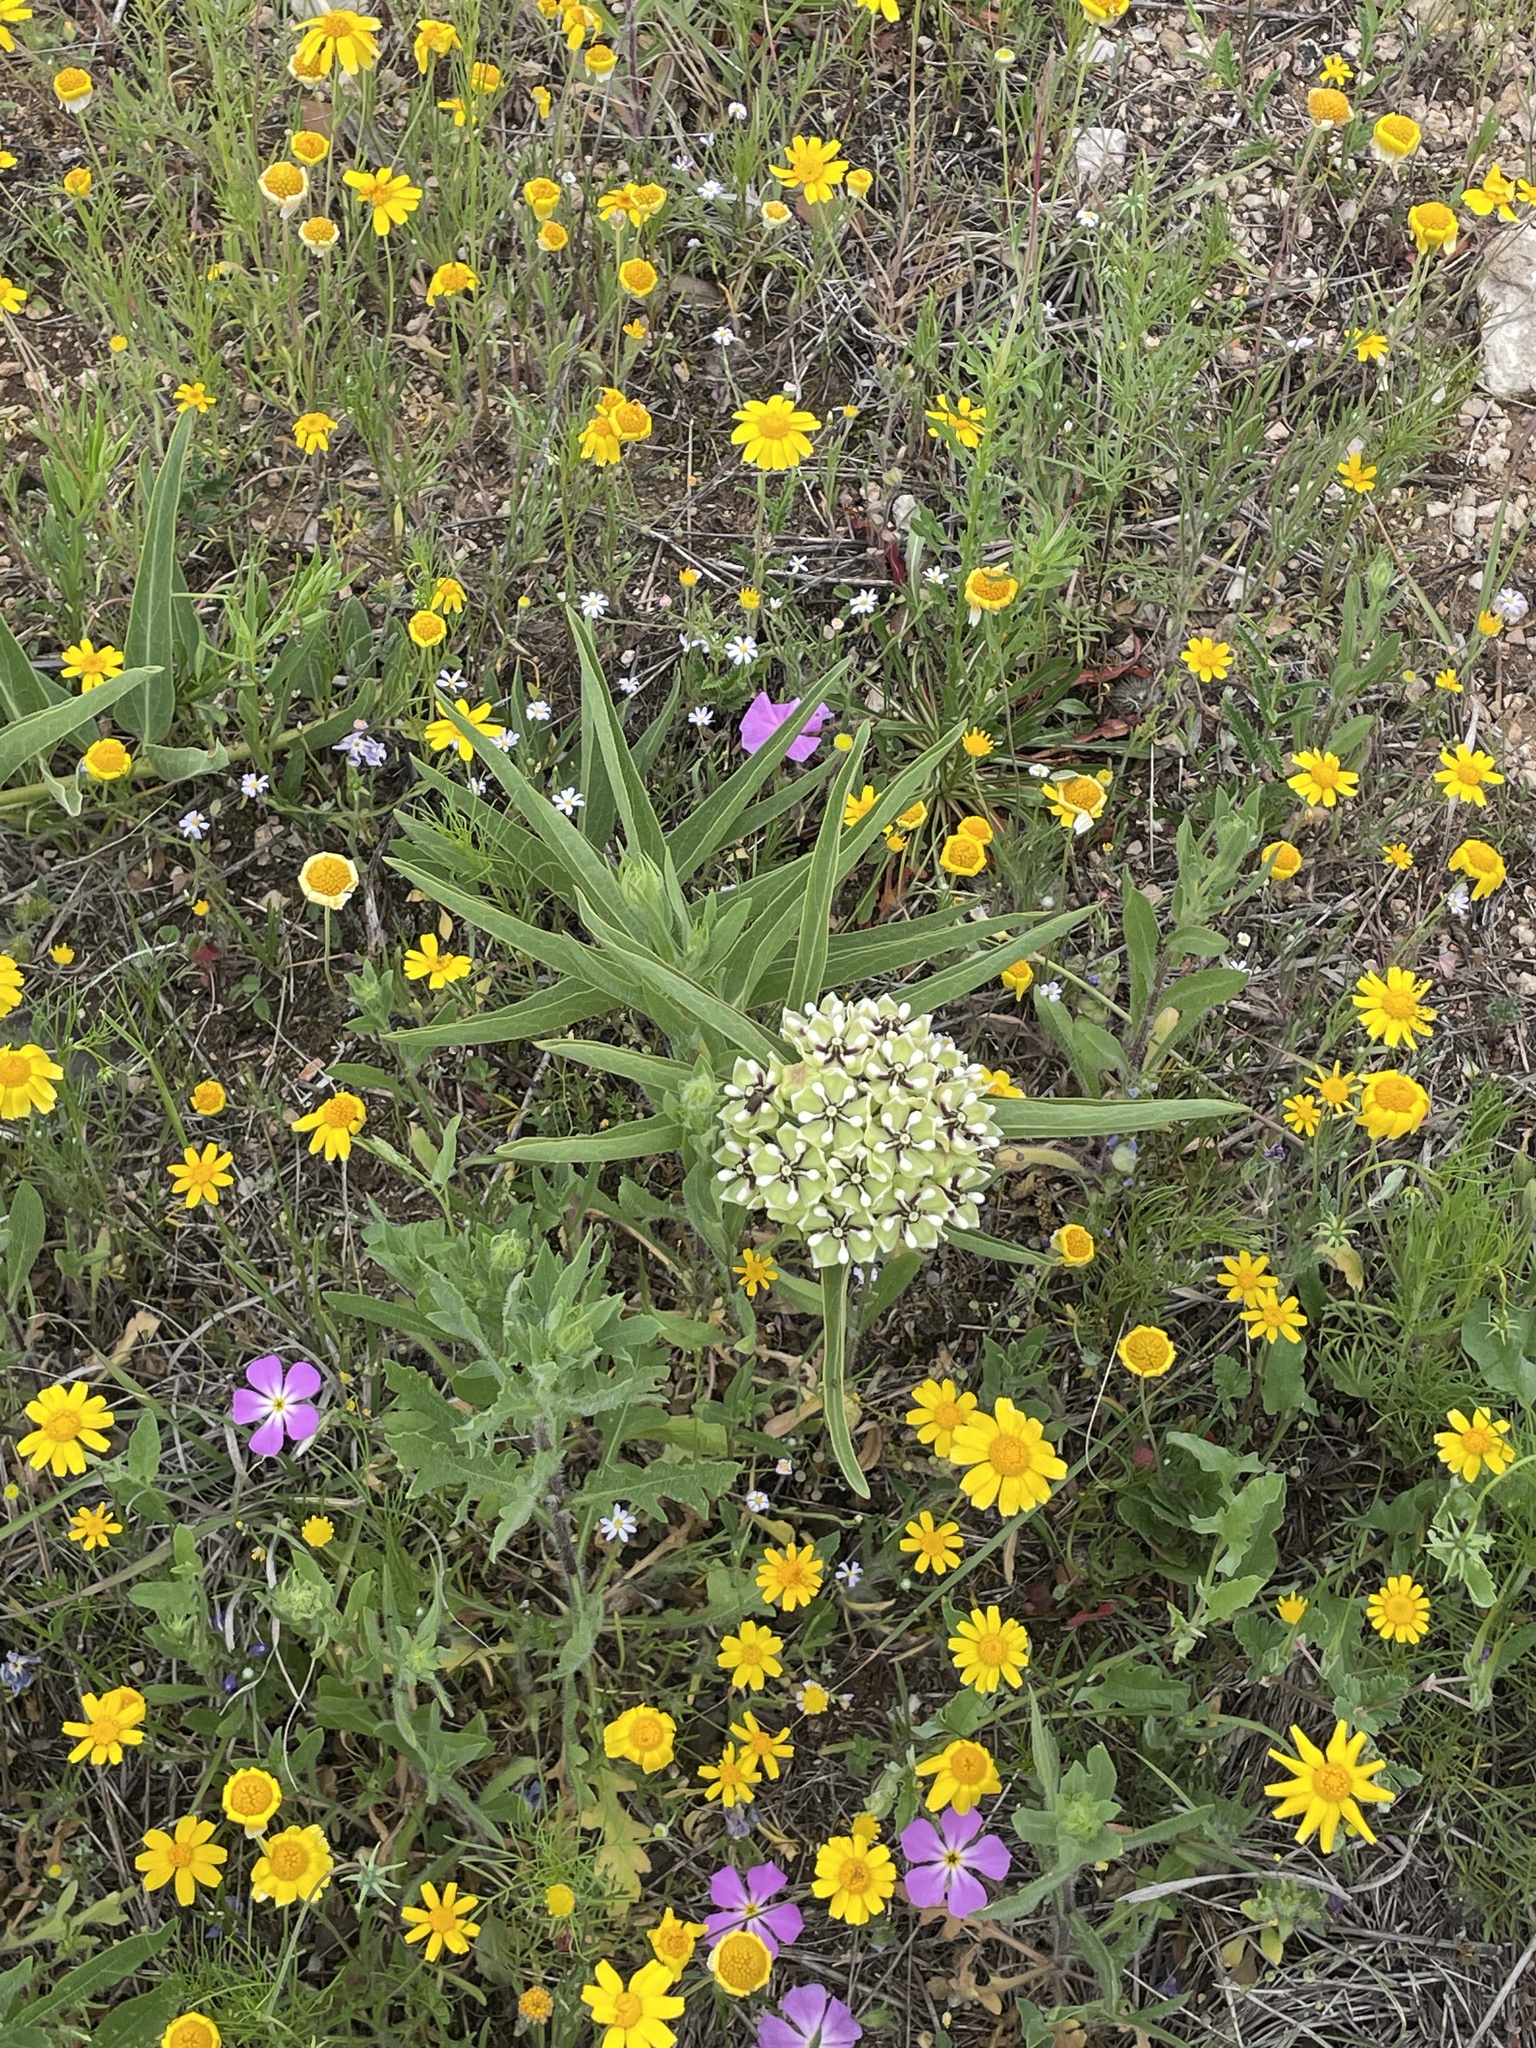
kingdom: Plantae
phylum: Tracheophyta
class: Magnoliopsida
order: Gentianales
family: Apocynaceae
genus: Asclepias
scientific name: Asclepias asperula
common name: Antelope horns
